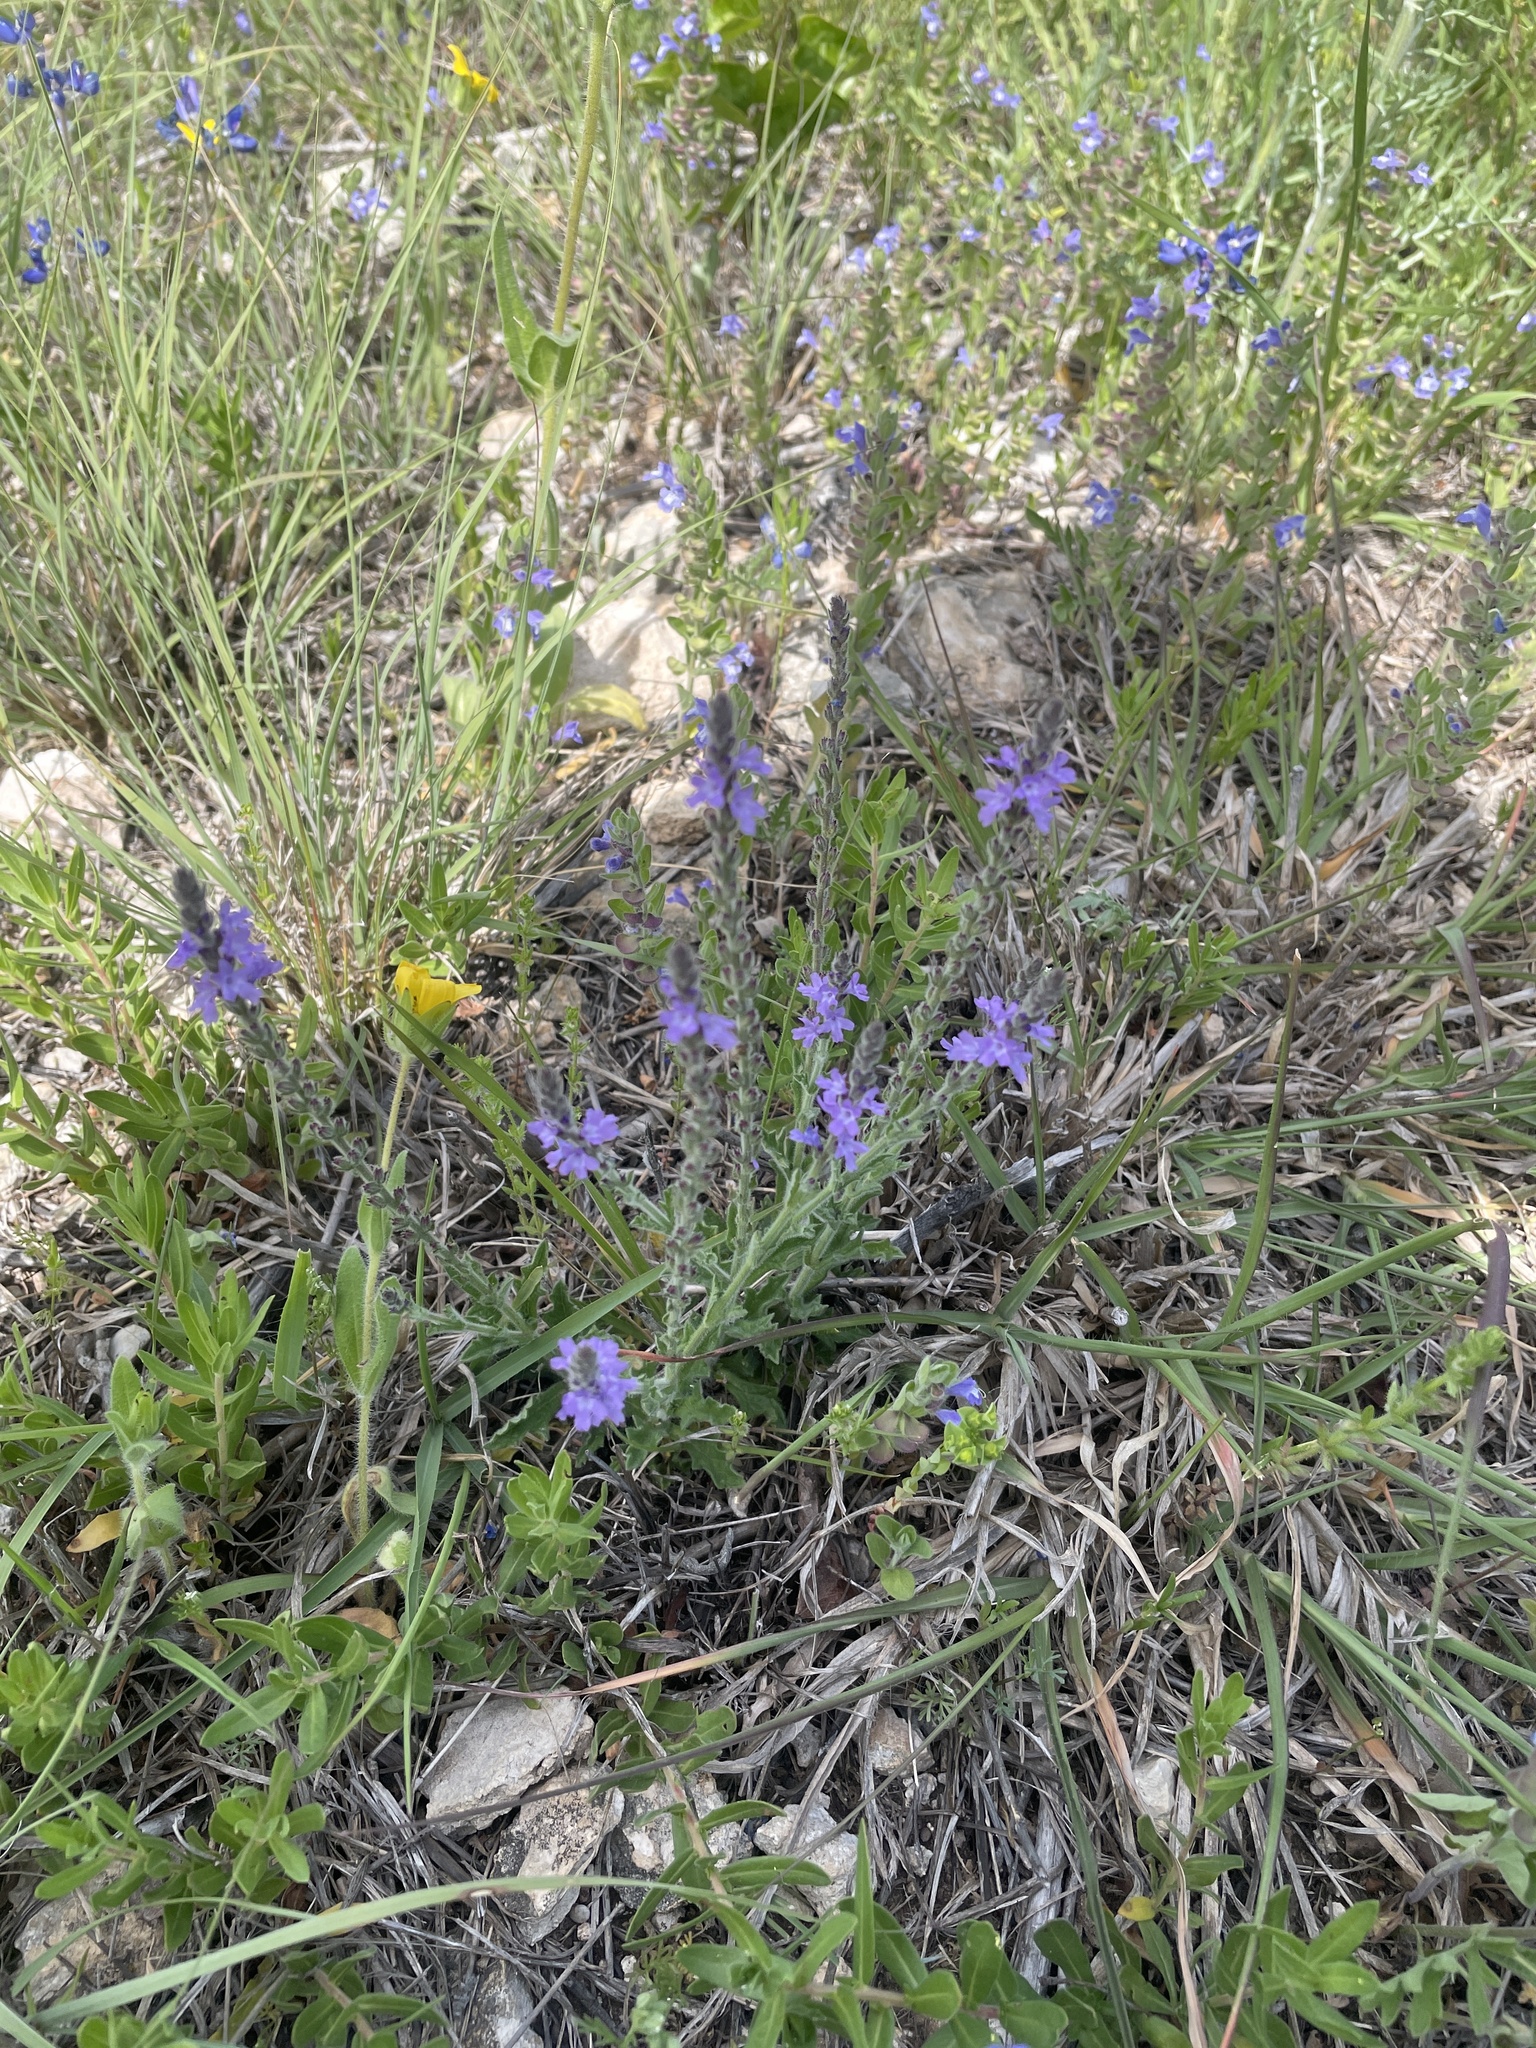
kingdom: Plantae
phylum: Tracheophyta
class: Magnoliopsida
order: Lamiales
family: Verbenaceae
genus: Verbena
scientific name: Verbena canescens
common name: Gray vervain
